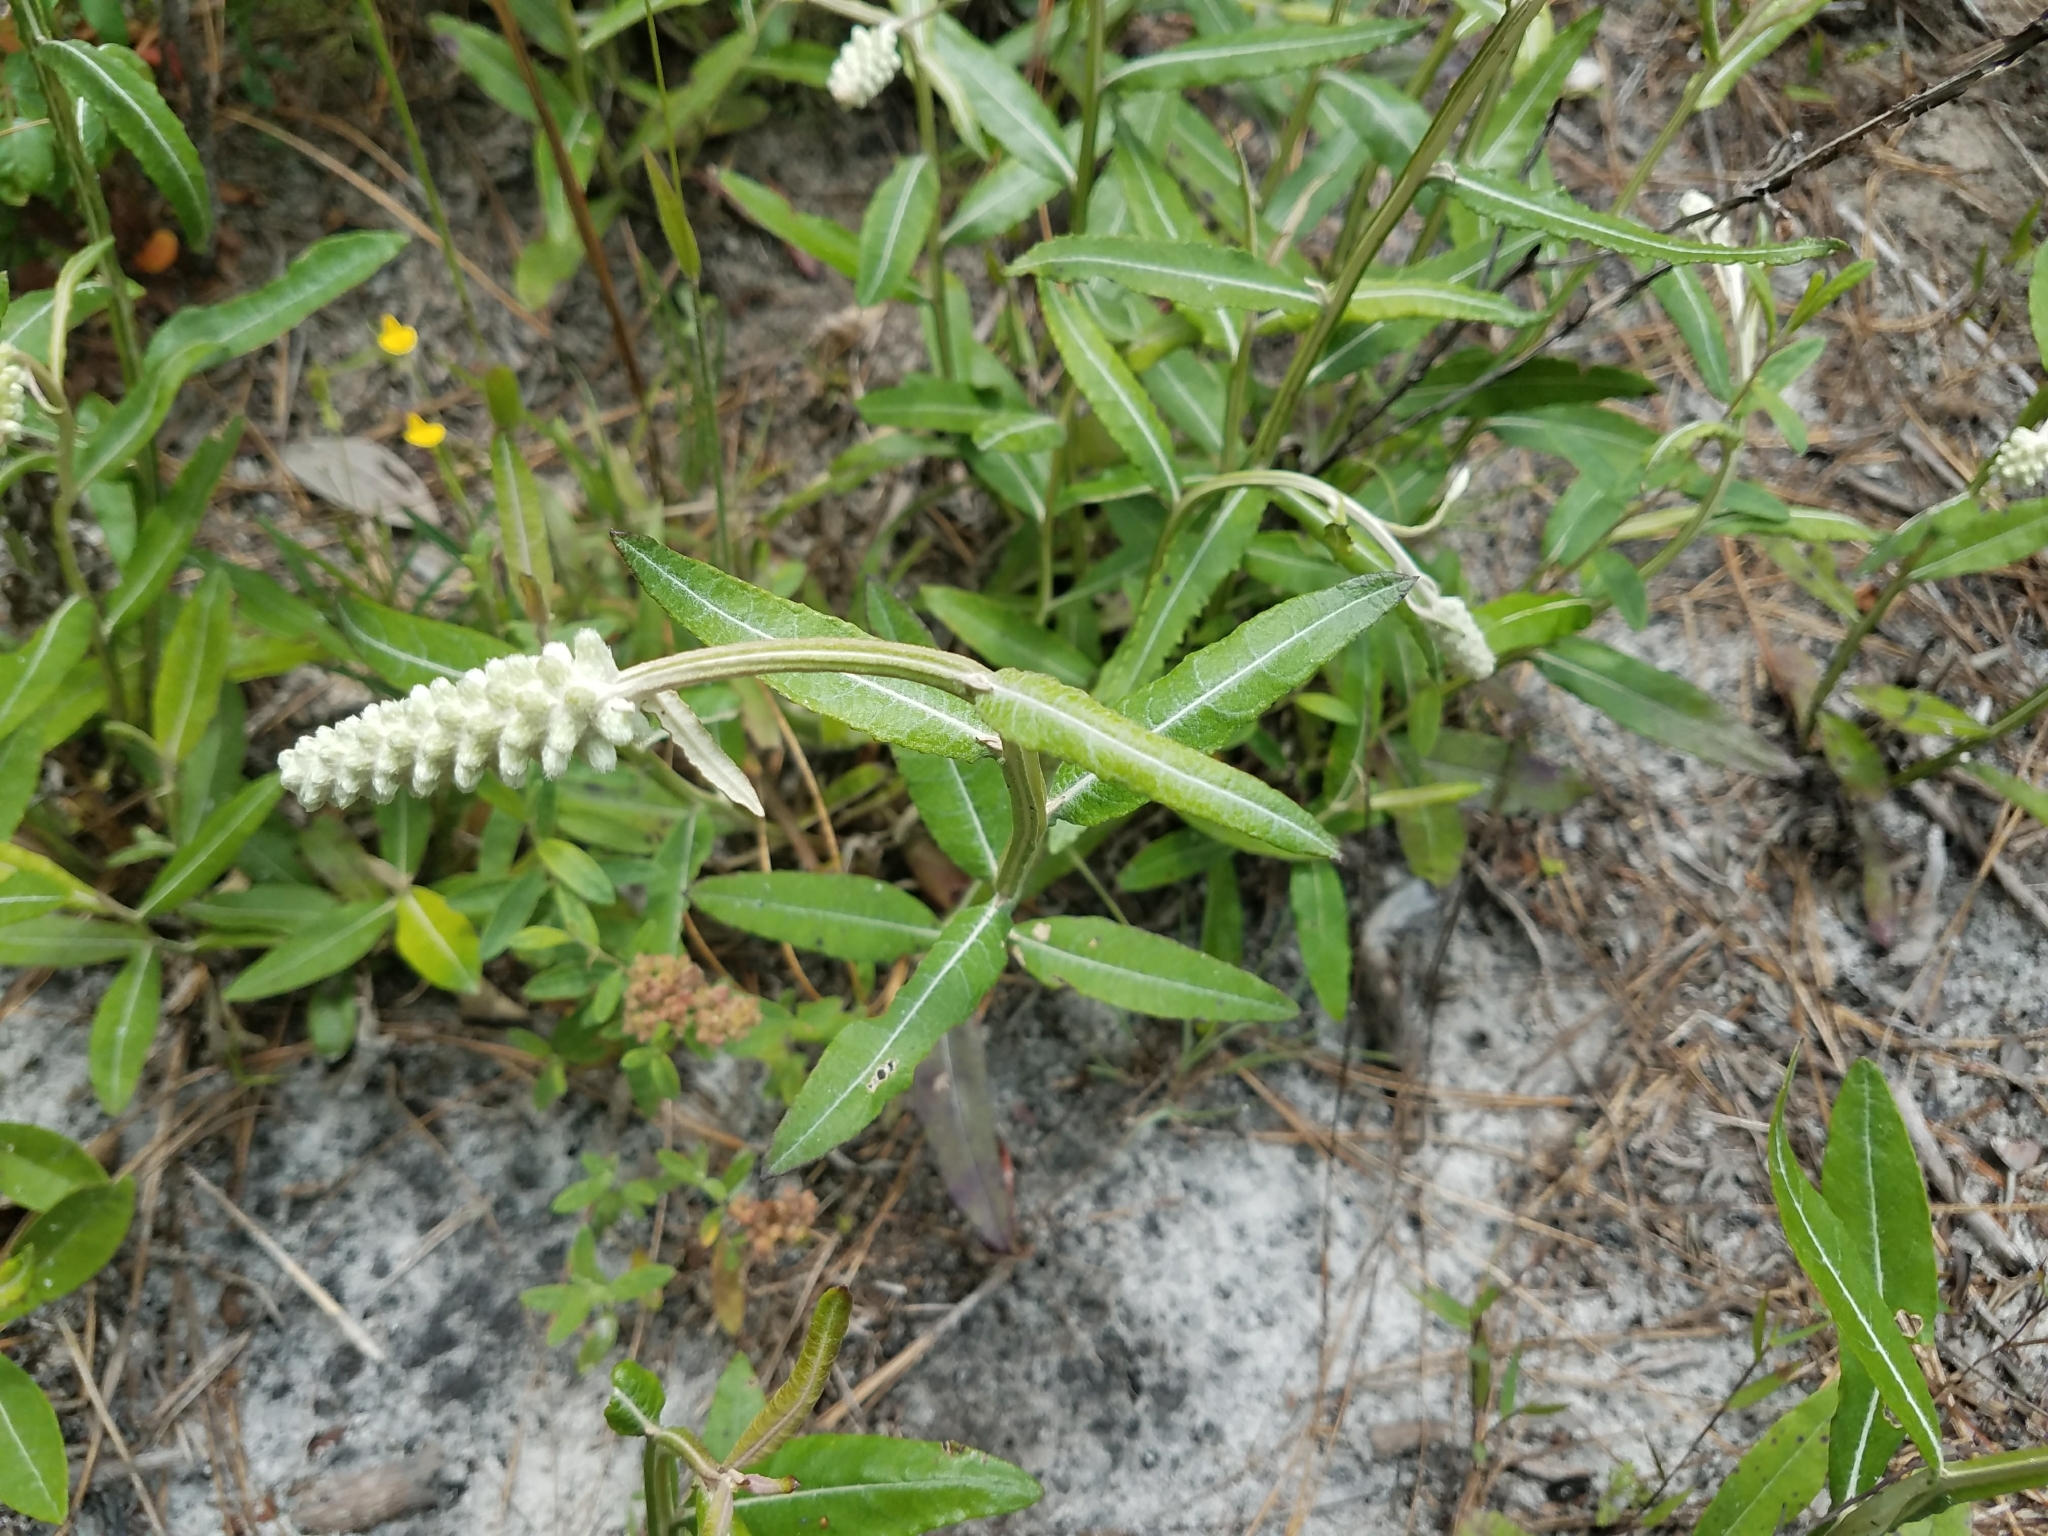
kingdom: Plantae
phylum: Tracheophyta
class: Magnoliopsida
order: Asterales
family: Asteraceae
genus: Pterocaulon
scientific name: Pterocaulon pycnostachyum
